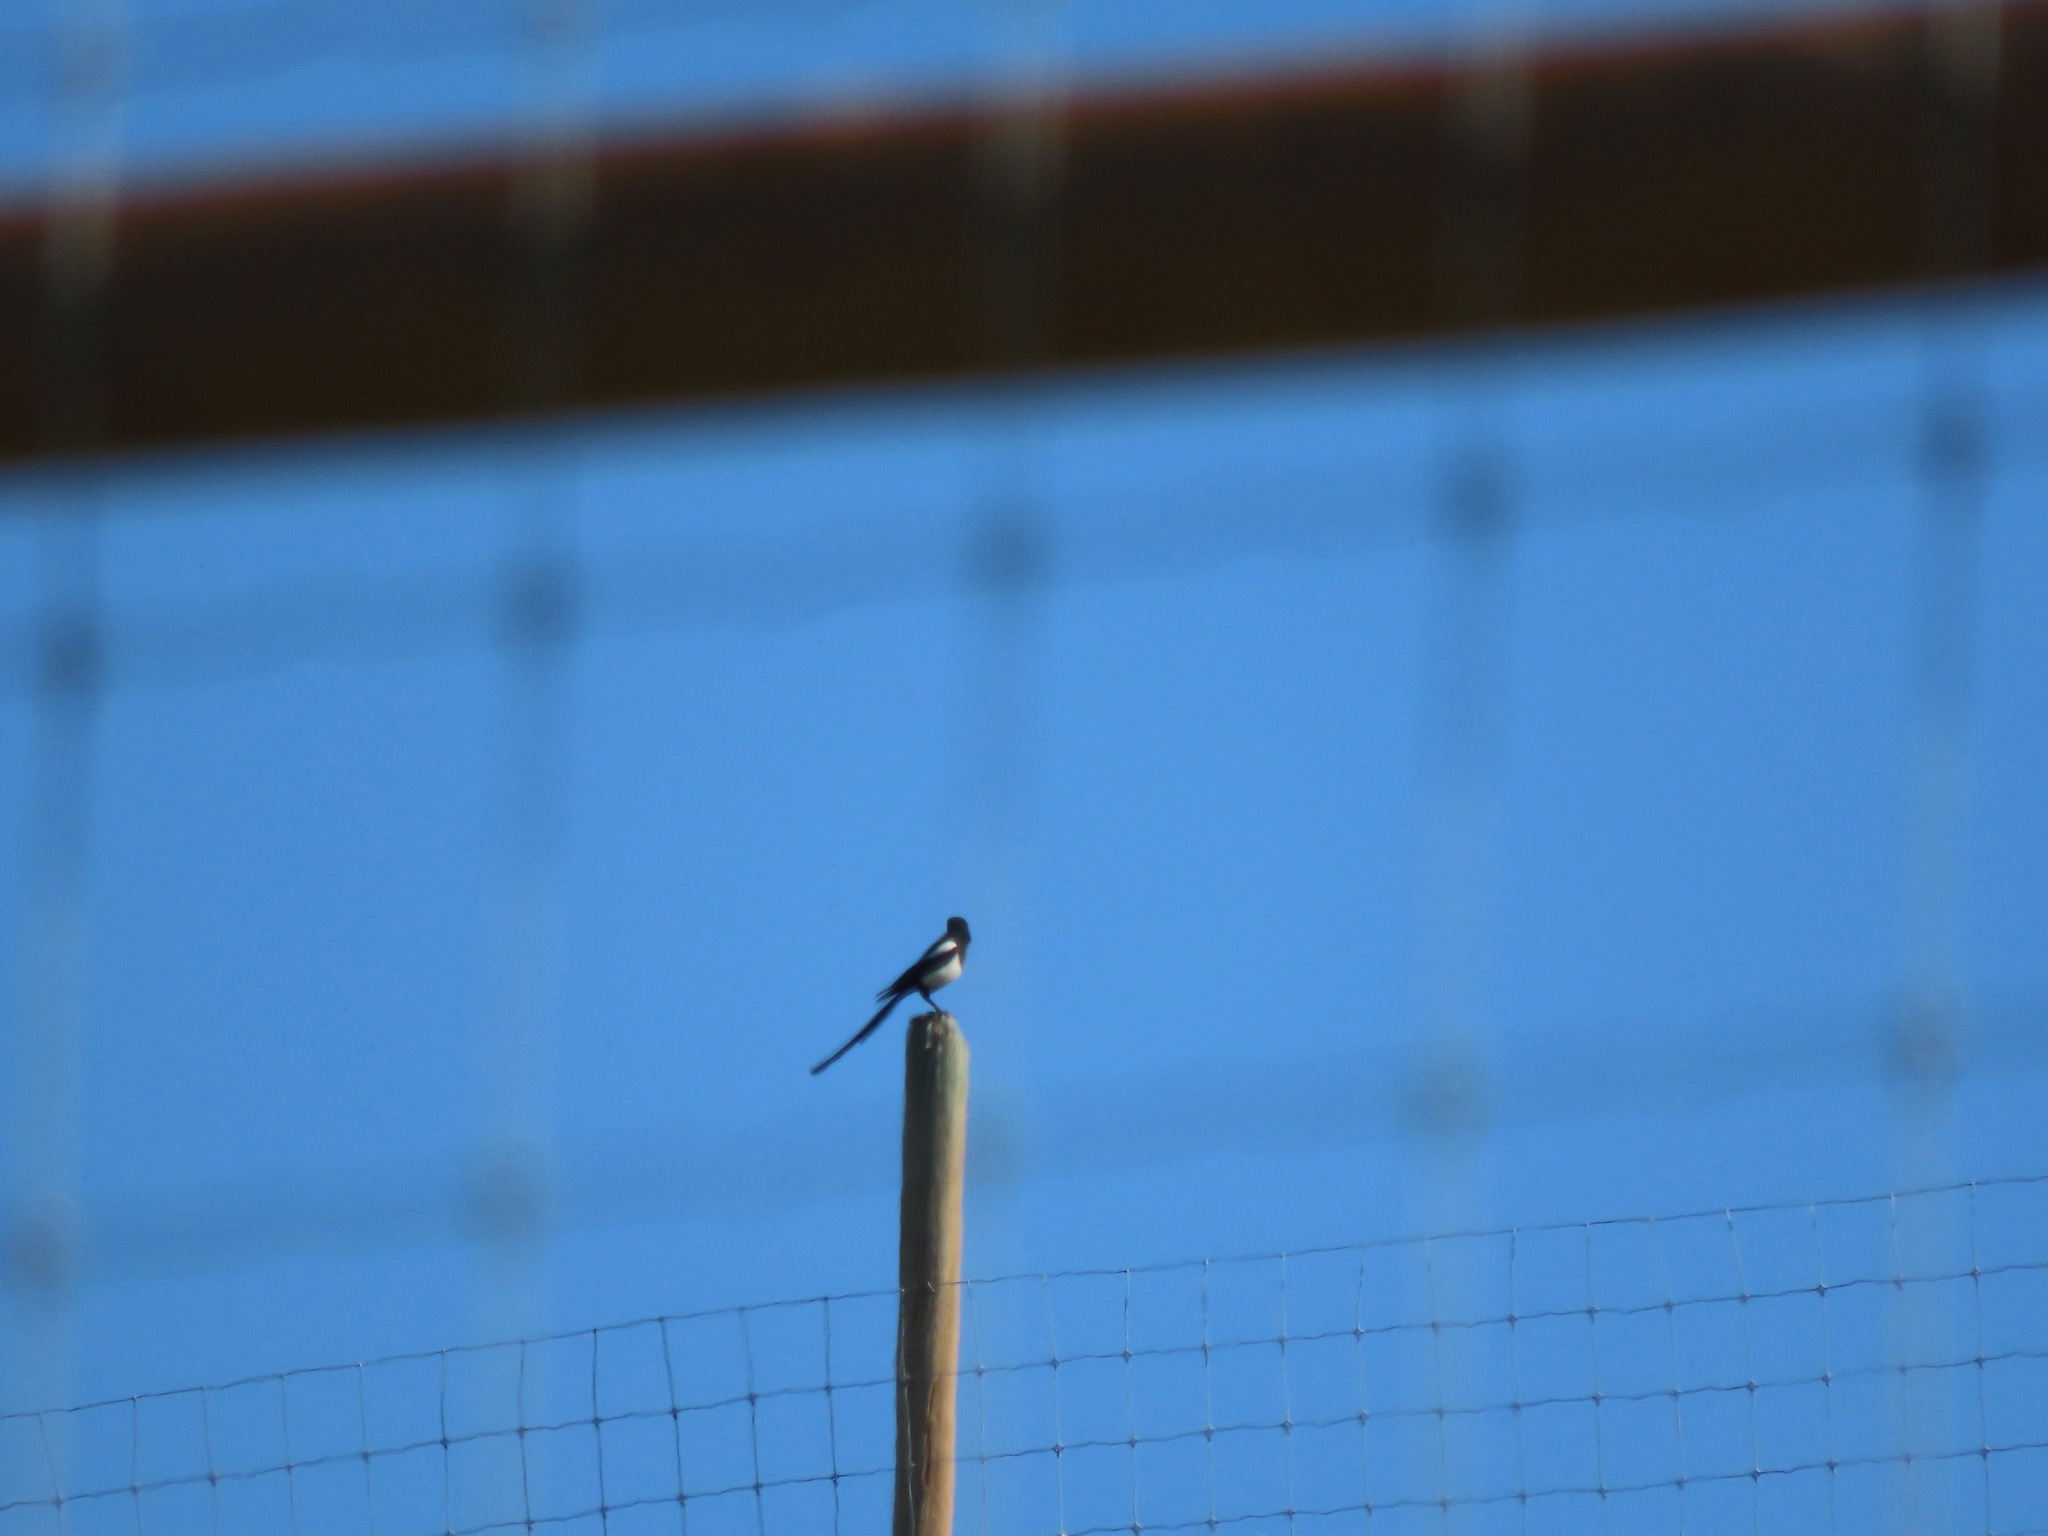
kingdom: Animalia
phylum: Chordata
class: Aves
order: Passeriformes
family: Corvidae
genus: Pica
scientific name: Pica hudsonia
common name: Black-billed magpie
